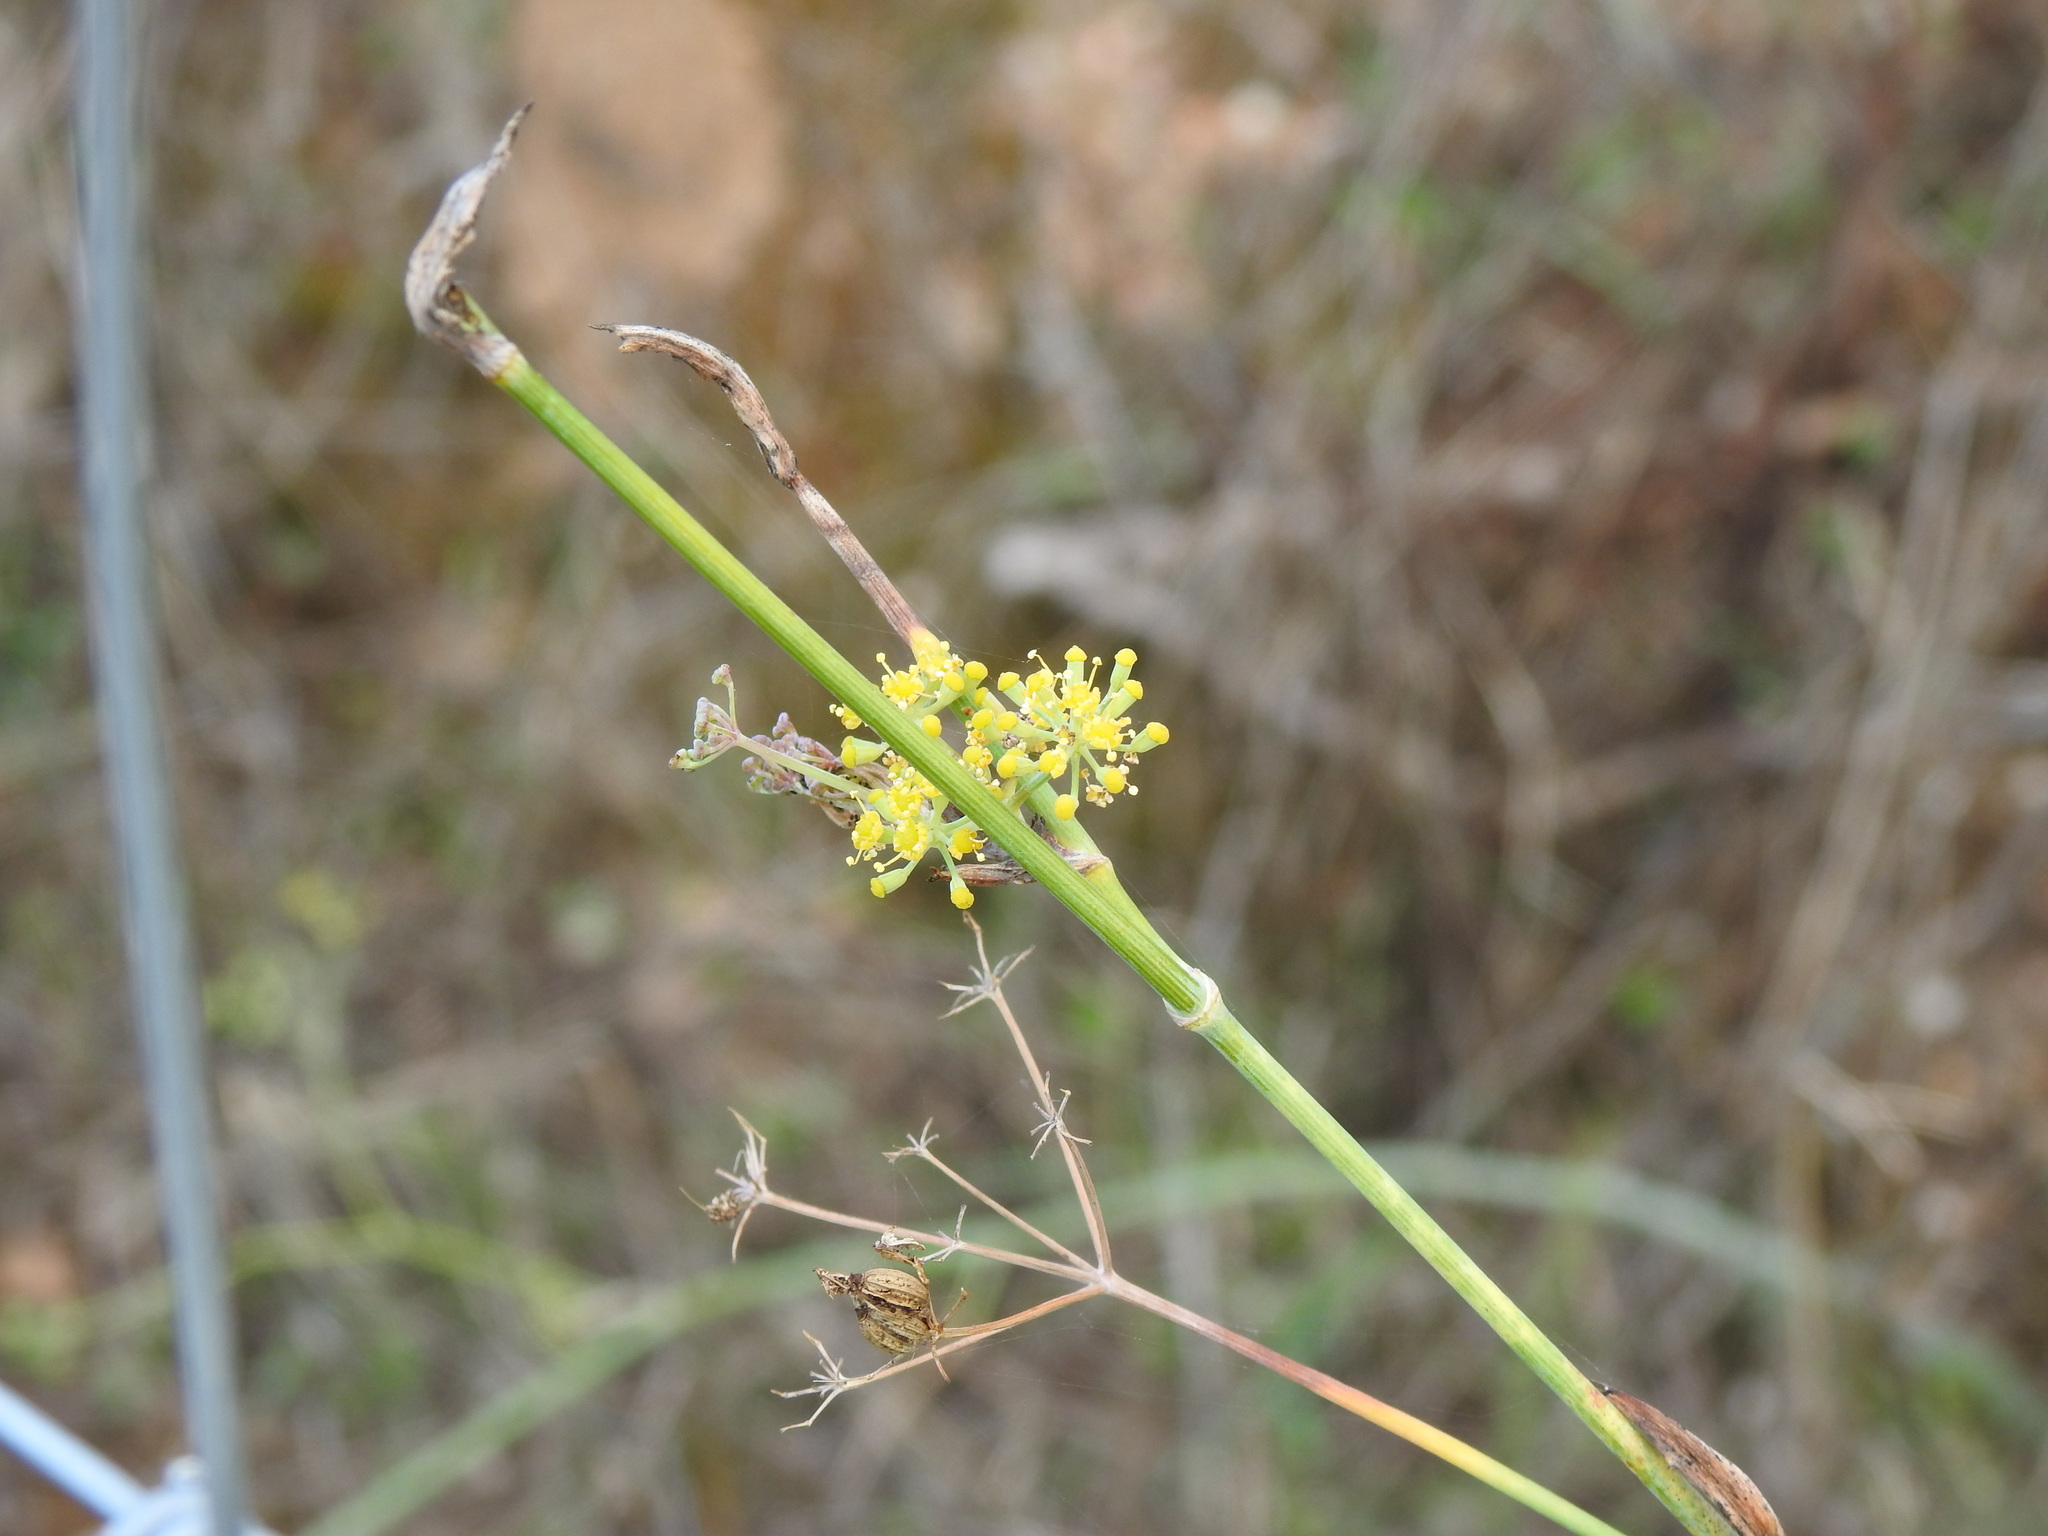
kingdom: Plantae
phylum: Tracheophyta
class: Magnoliopsida
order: Apiales
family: Apiaceae
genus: Foeniculum
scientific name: Foeniculum vulgare
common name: Fennel
